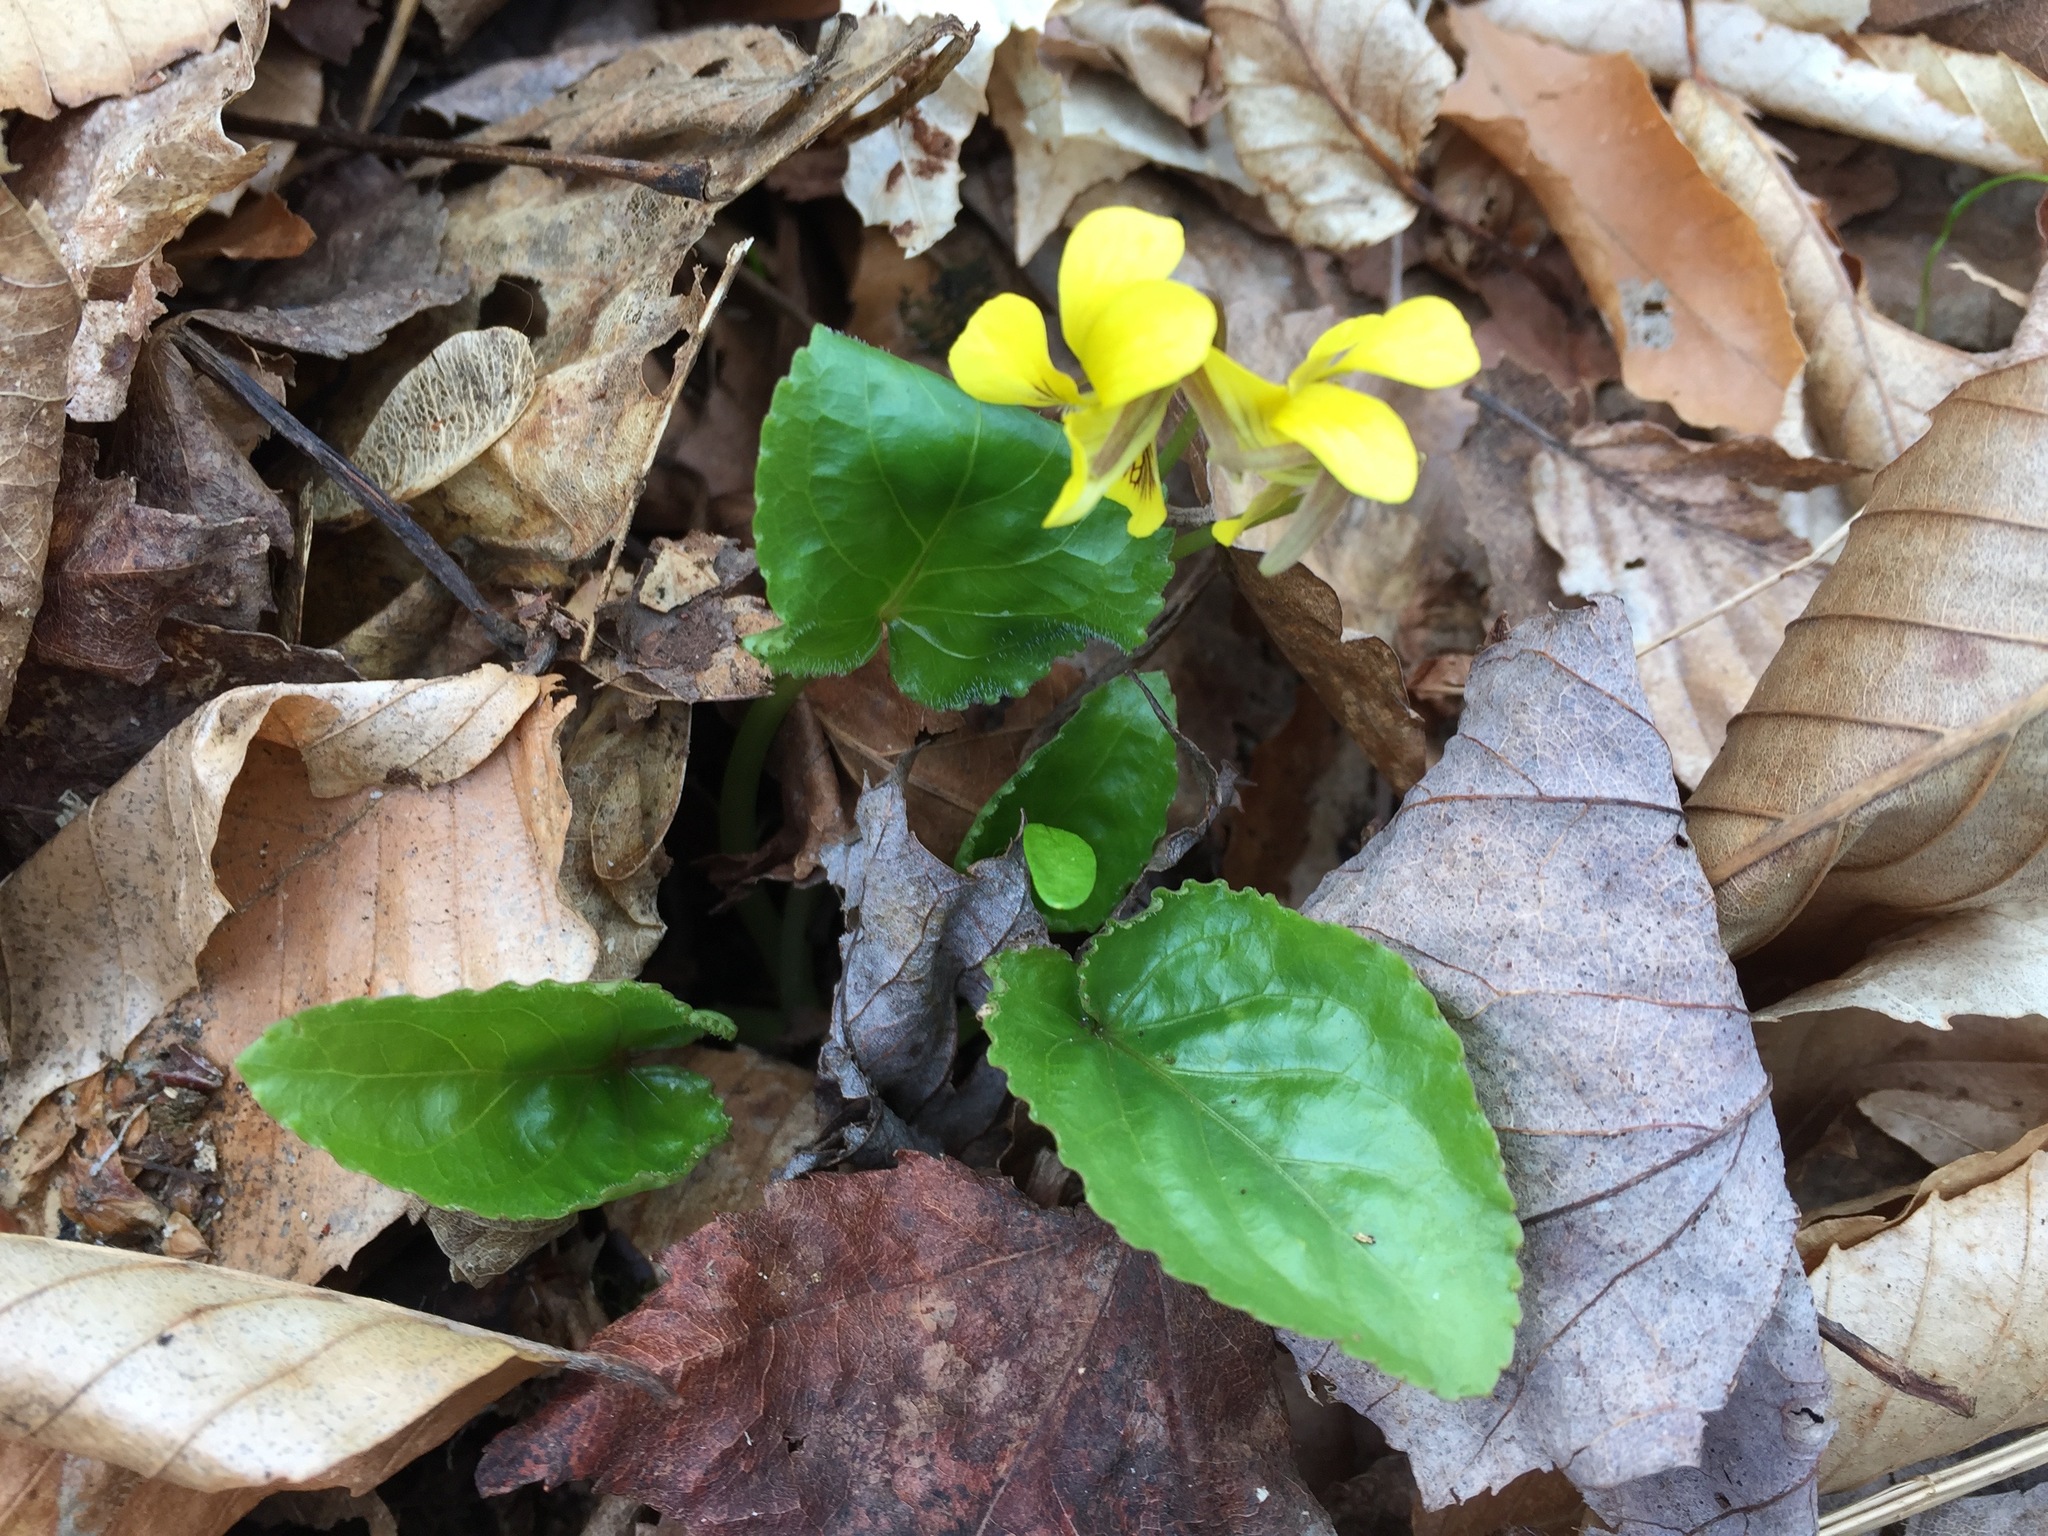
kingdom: Plantae
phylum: Tracheophyta
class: Magnoliopsida
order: Malpighiales
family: Violaceae
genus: Viola
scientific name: Viola rotundifolia
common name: Early yellow violet
